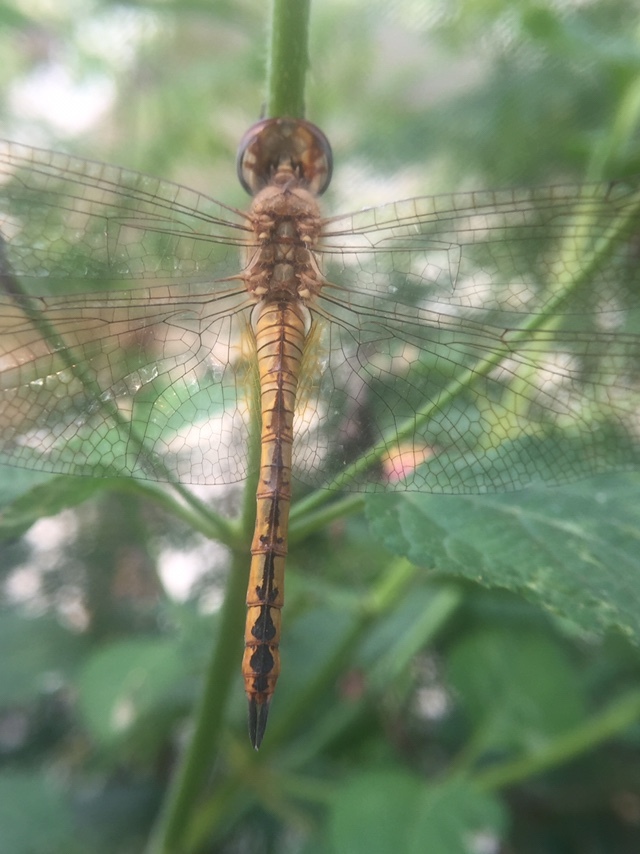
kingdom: Animalia
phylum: Arthropoda
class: Insecta
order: Odonata
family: Libellulidae
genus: Pantala
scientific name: Pantala flavescens
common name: Wandering glider
